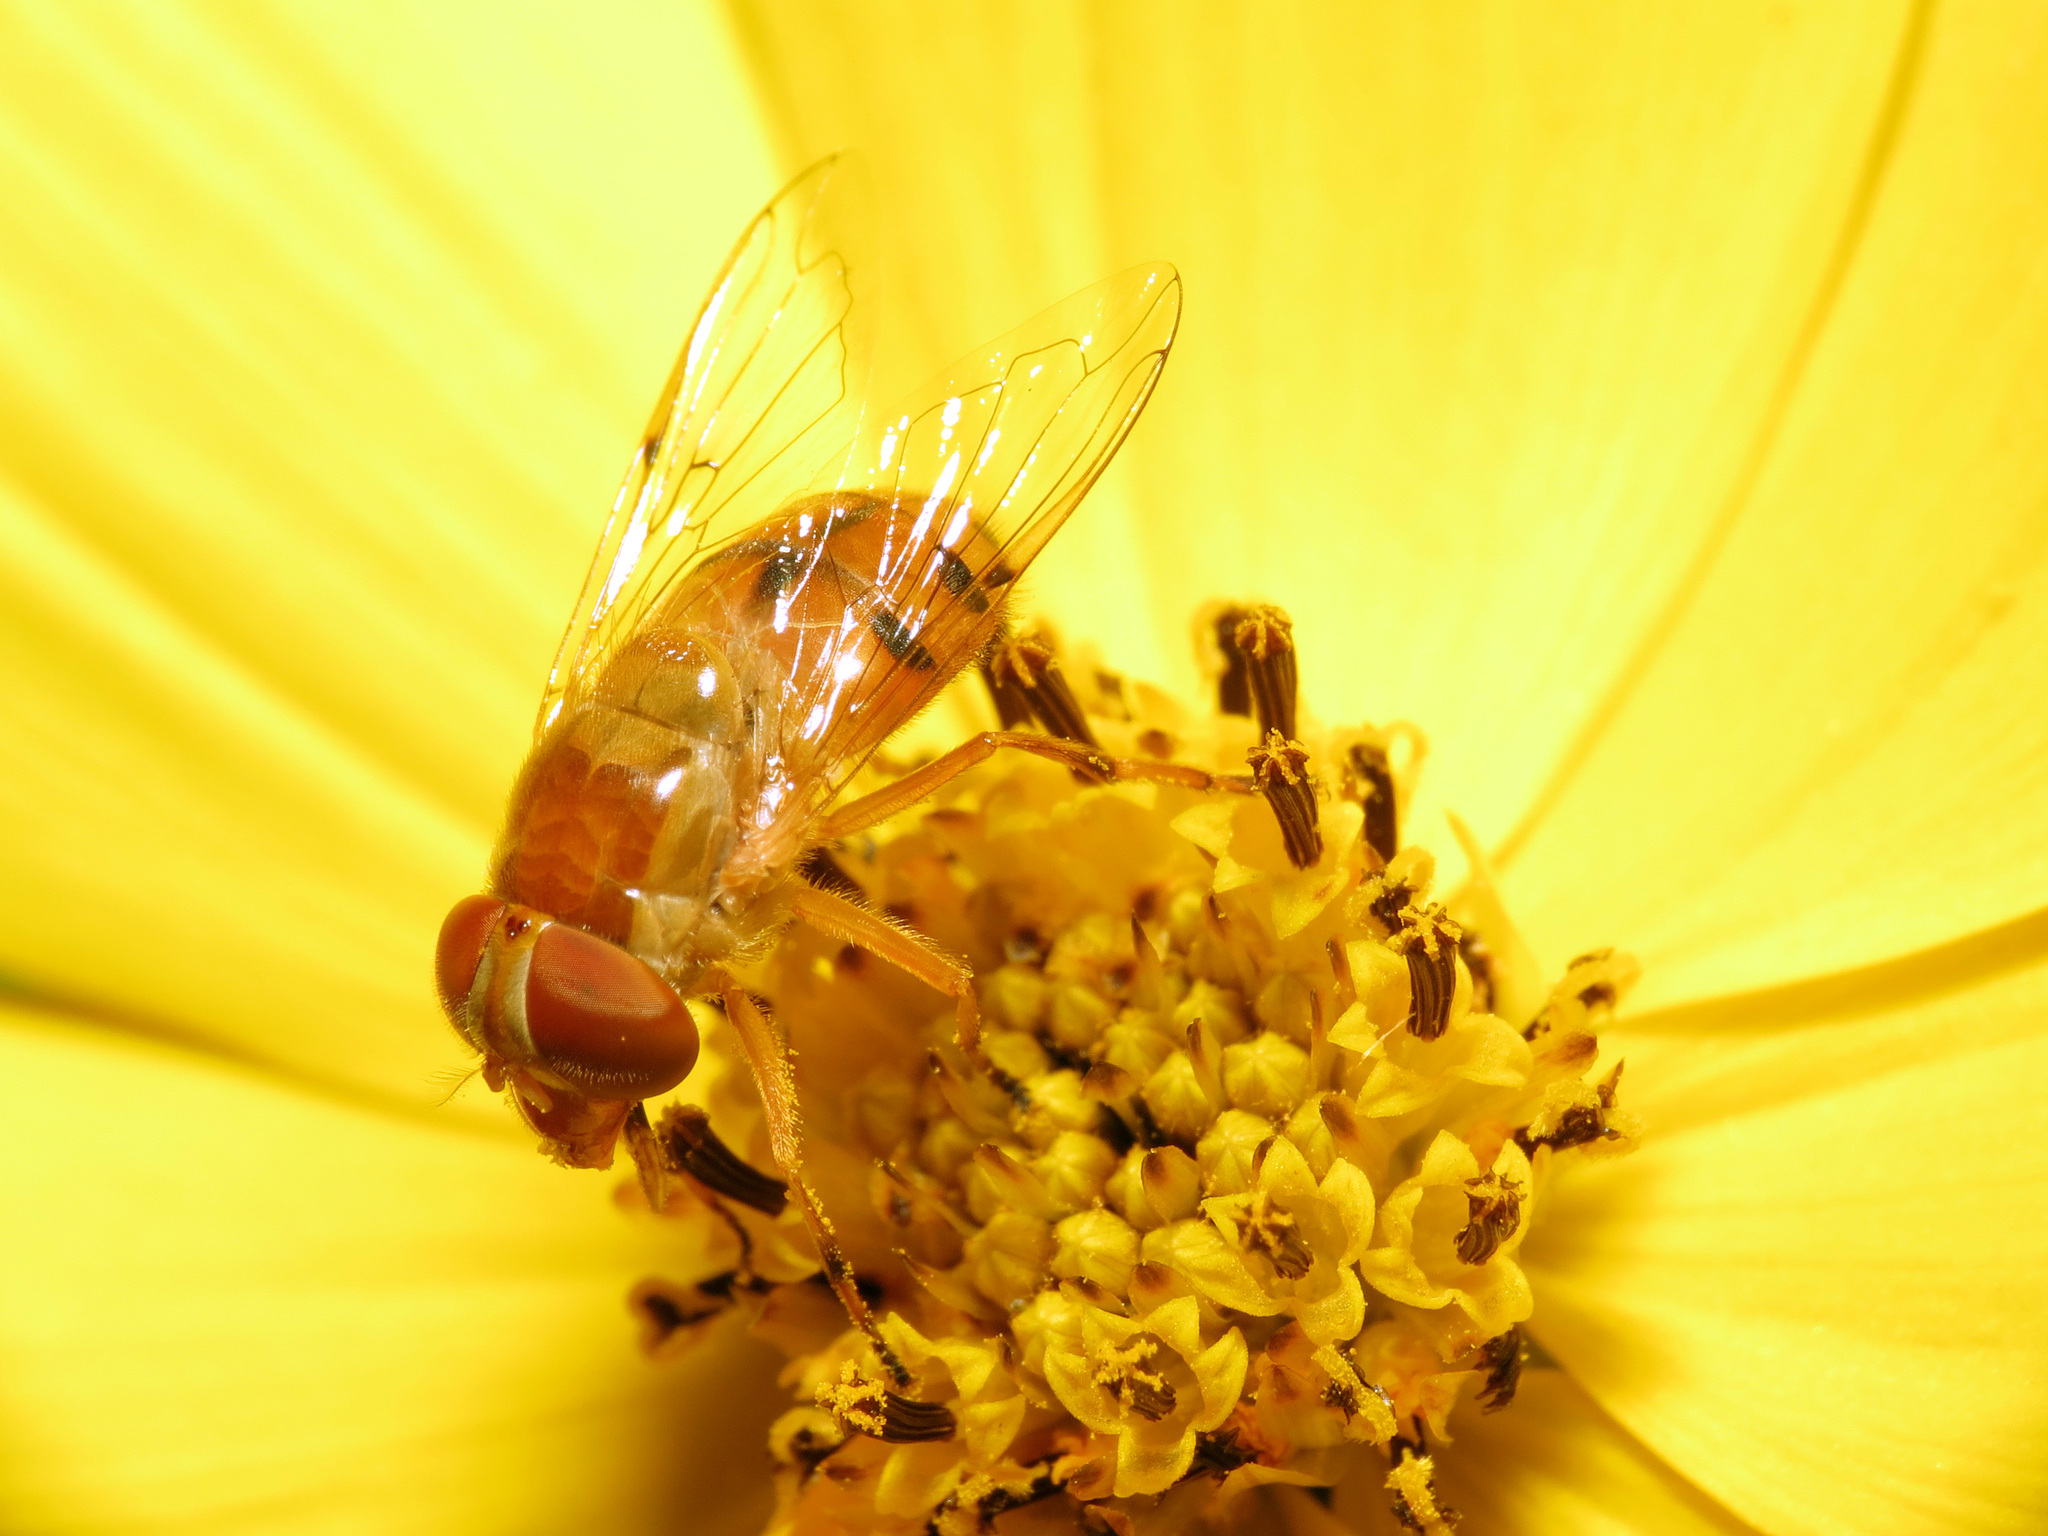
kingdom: Animalia
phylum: Arthropoda
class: Insecta
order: Diptera
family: Syrphidae
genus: Copestylum
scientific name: Copestylum sexmaculatum
